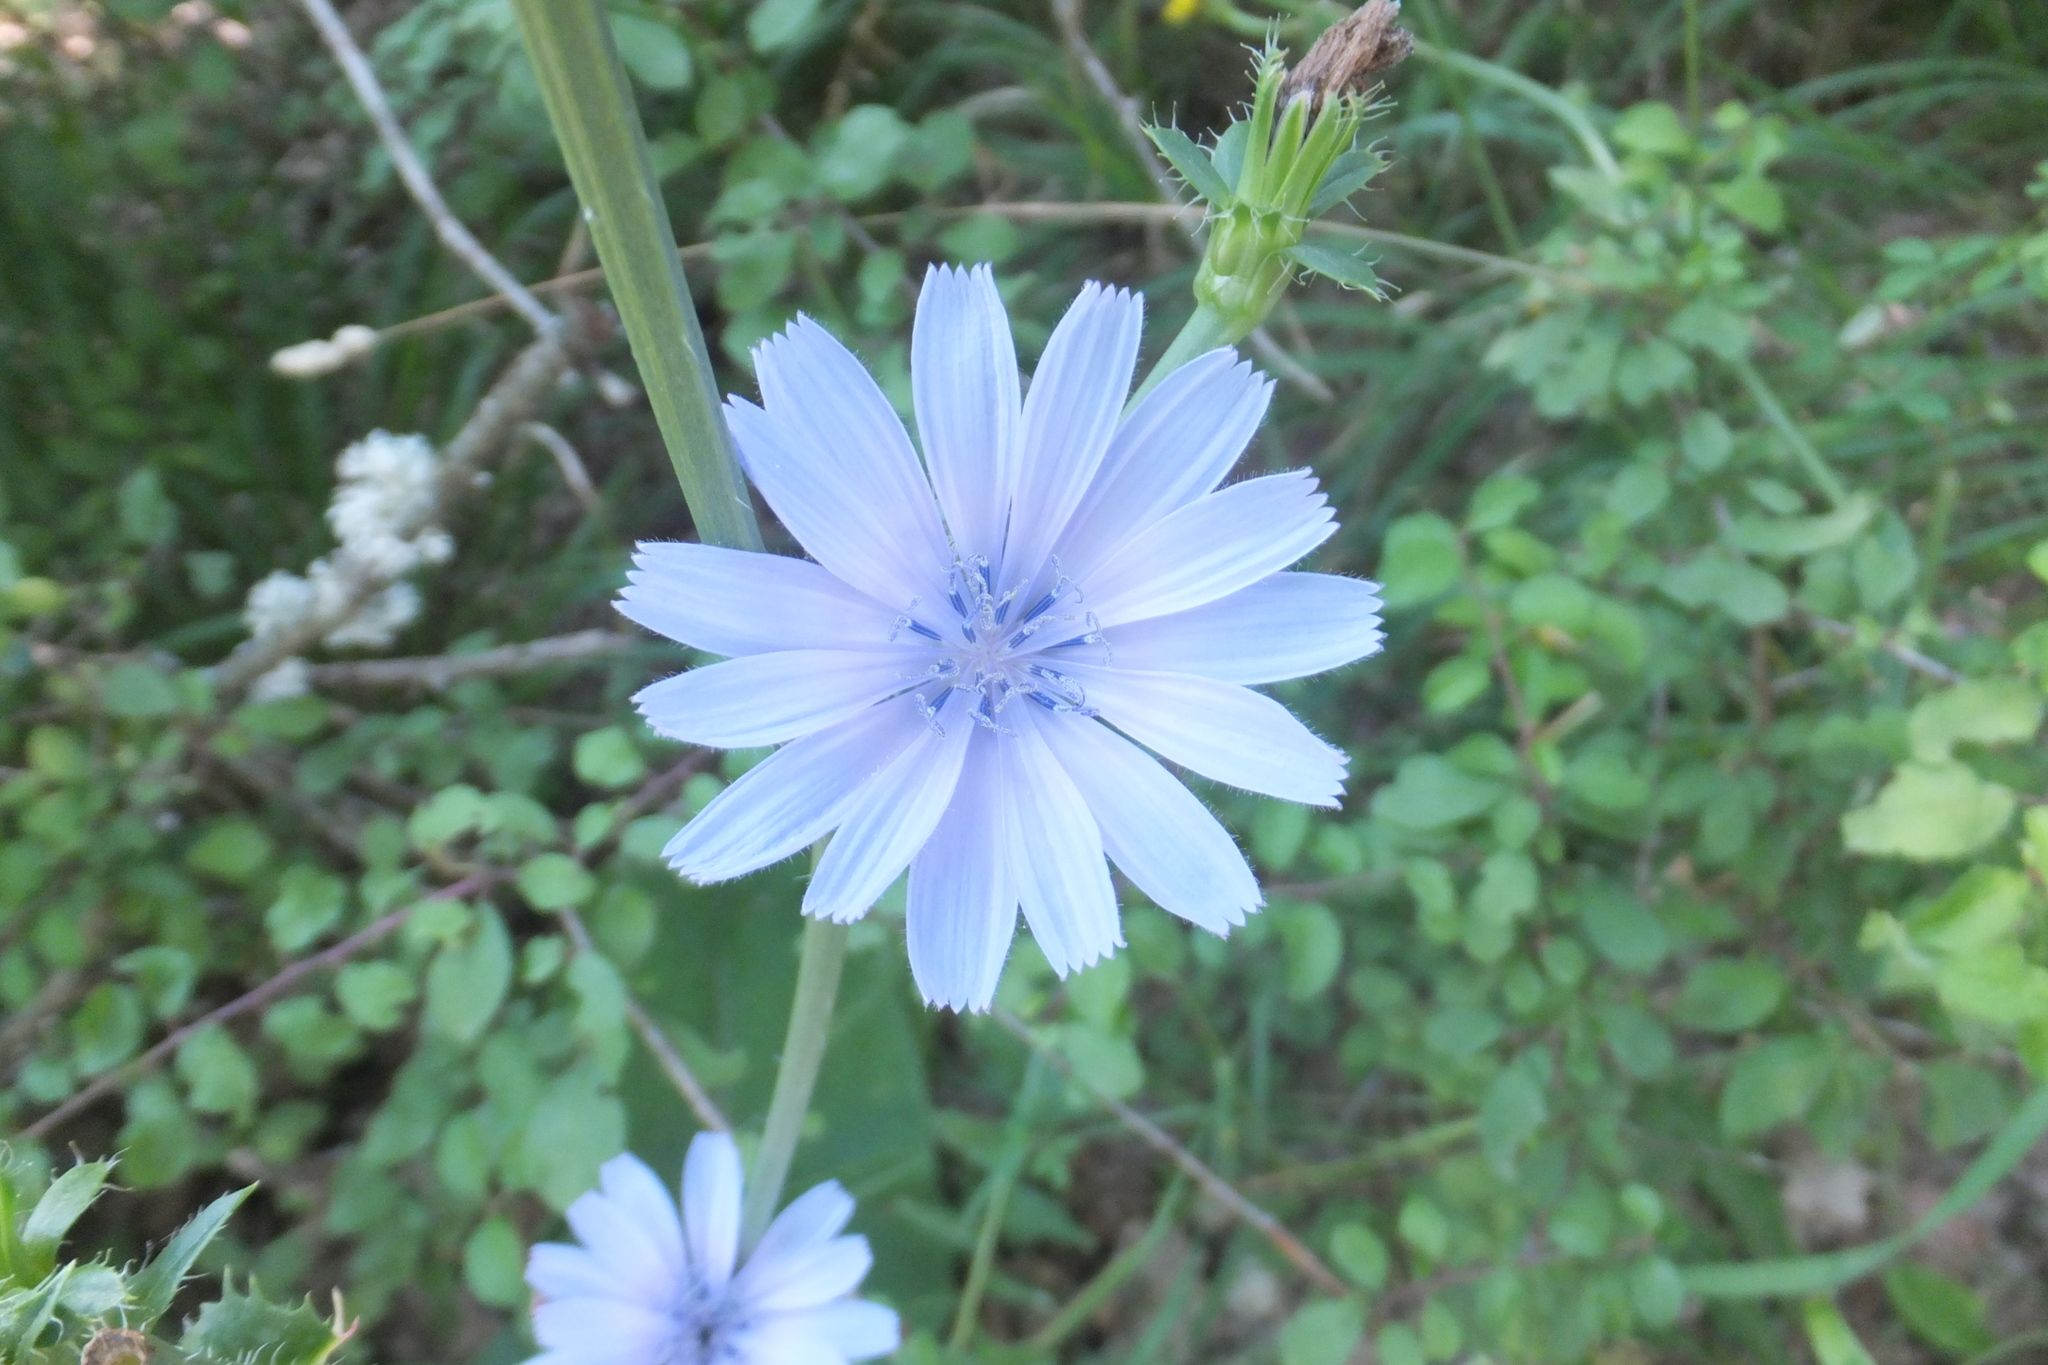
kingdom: Plantae
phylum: Tracheophyta
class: Magnoliopsida
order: Asterales
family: Asteraceae
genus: Cichorium
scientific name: Cichorium intybus
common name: Chicory
